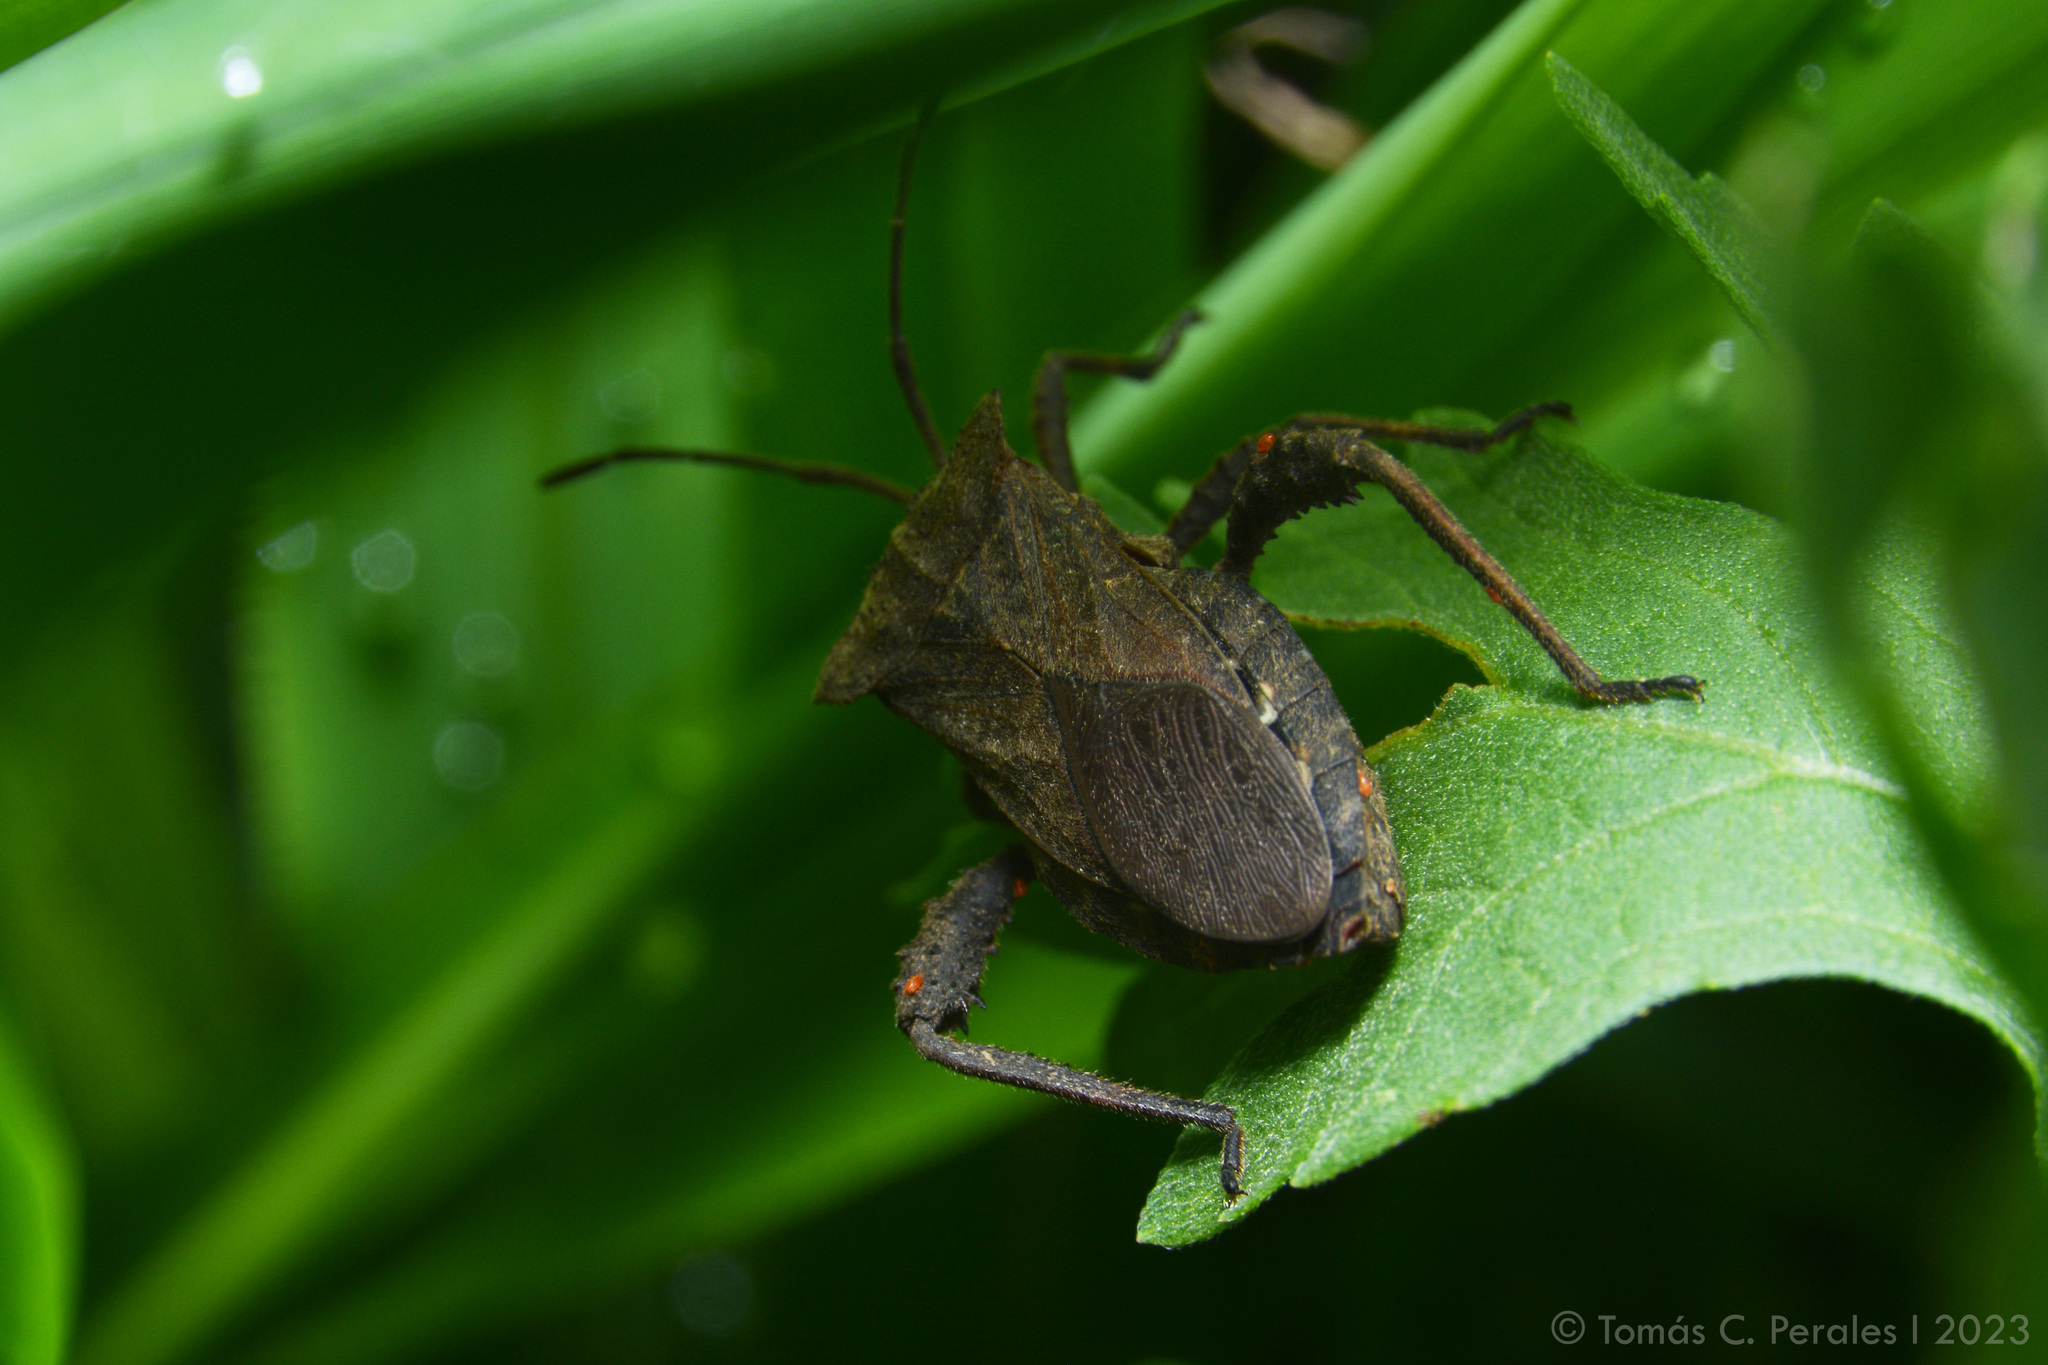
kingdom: Animalia
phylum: Arthropoda
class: Insecta
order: Hemiptera
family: Coreidae
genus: Camptischium
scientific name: Camptischium clavipes
